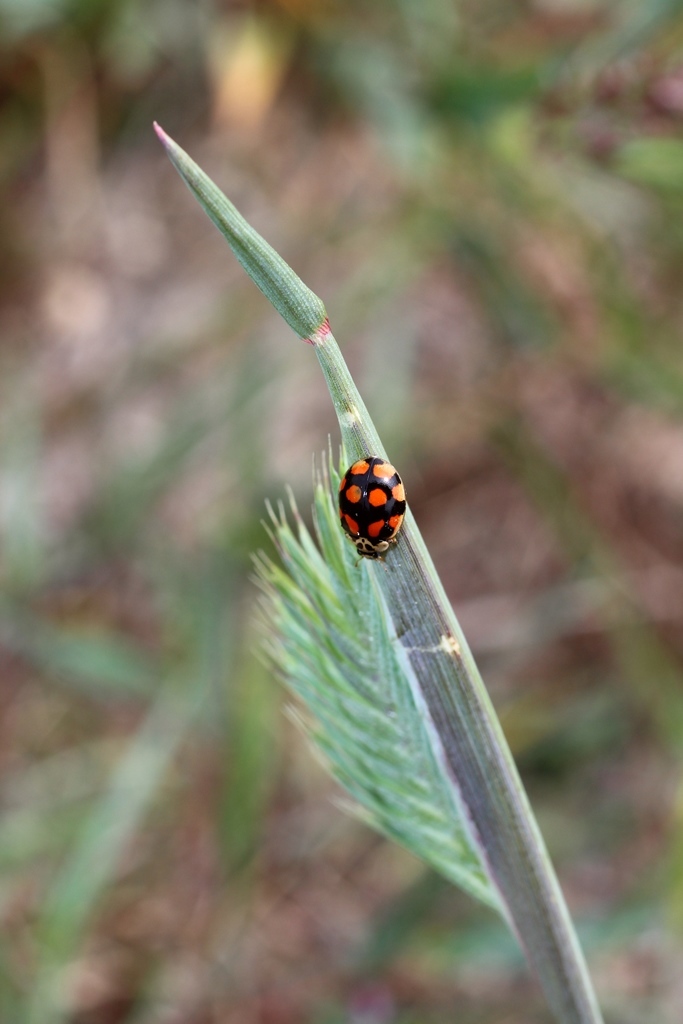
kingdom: Animalia
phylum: Arthropoda
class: Insecta
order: Coleoptera
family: Coccinellidae
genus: Adalia
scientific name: Adalia decempunctata
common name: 10-spot ladybird
